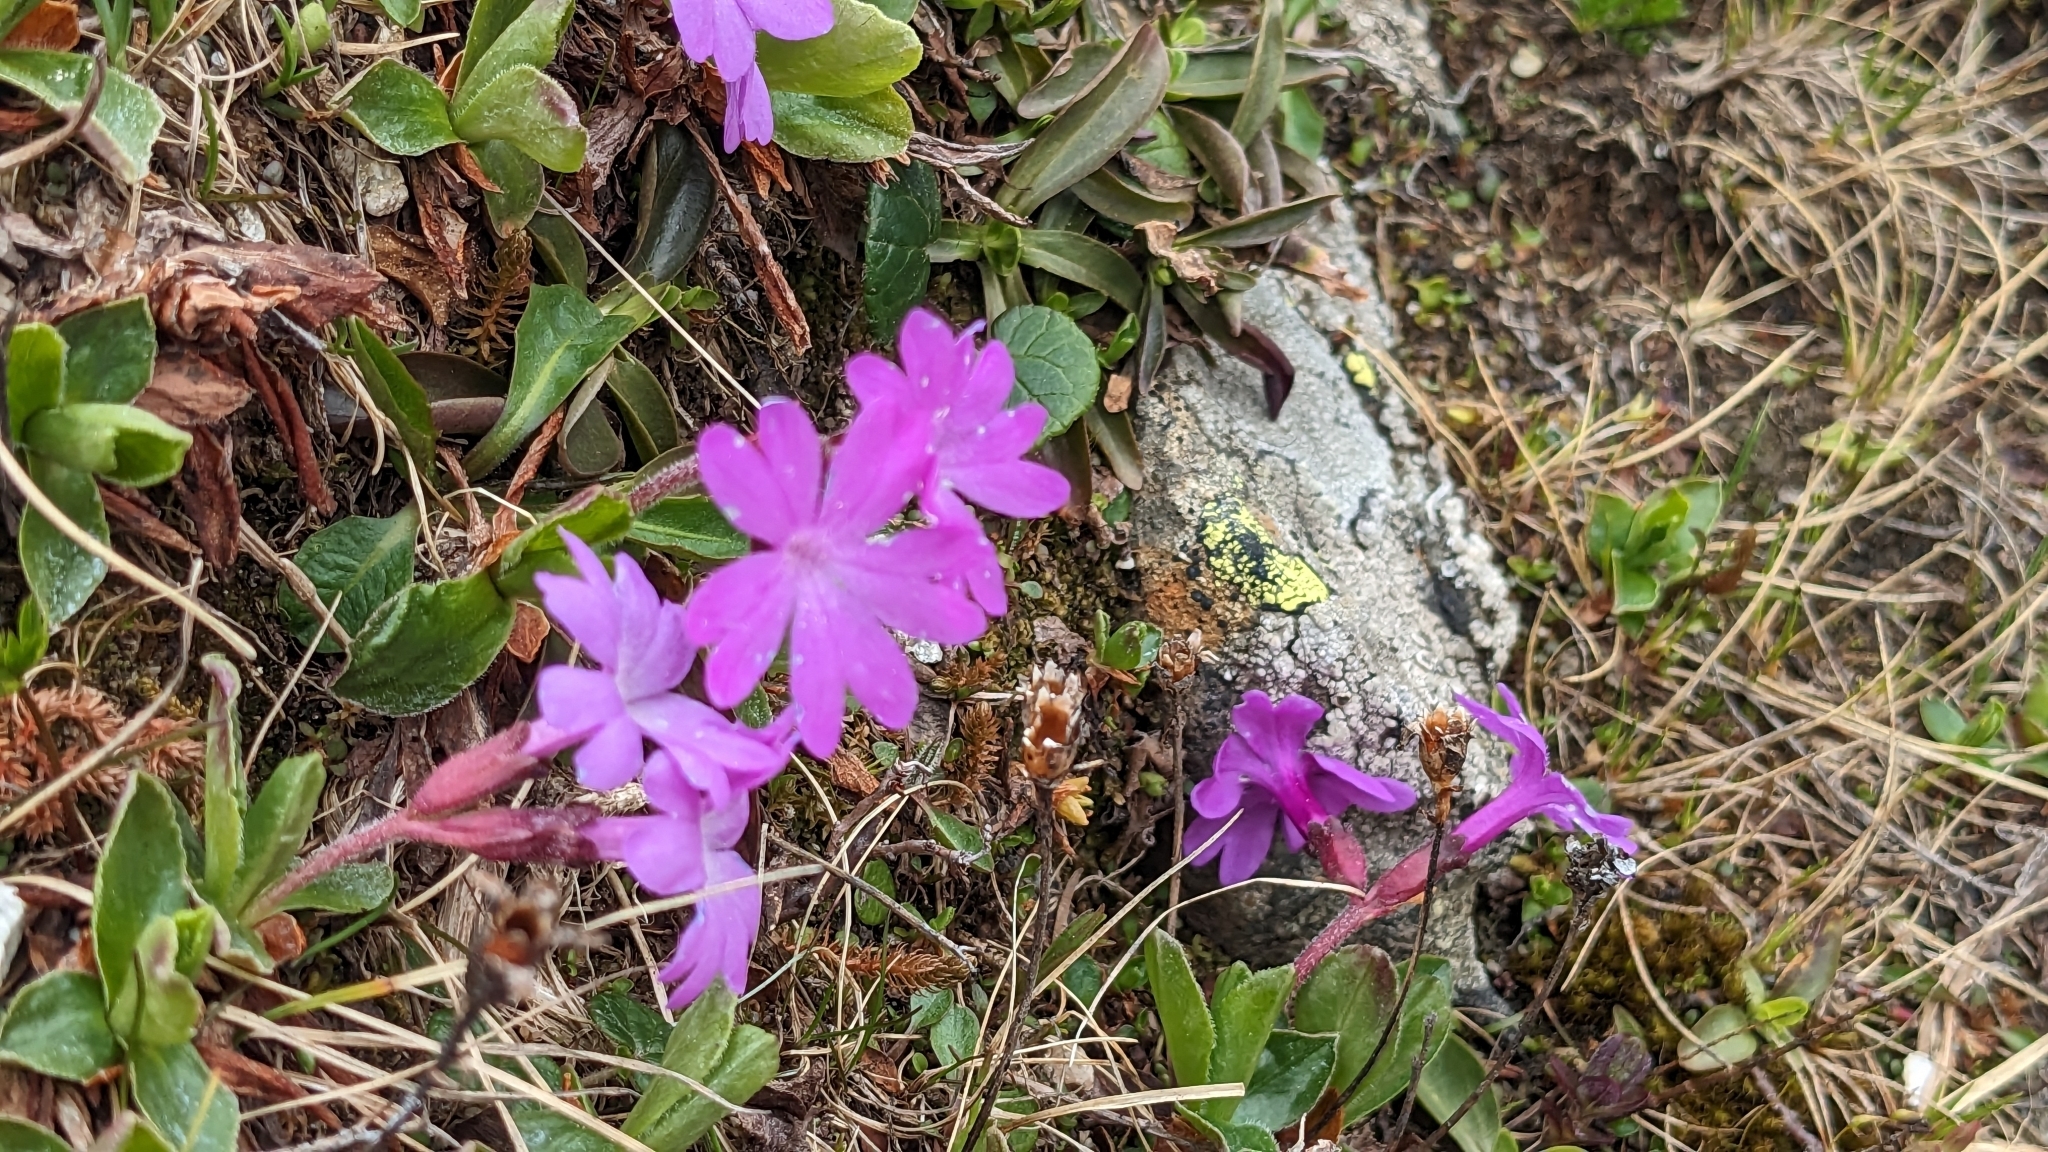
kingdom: Plantae
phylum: Tracheophyta
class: Magnoliopsida
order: Ericales
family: Primulaceae
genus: Primula
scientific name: Primula integrifolia
